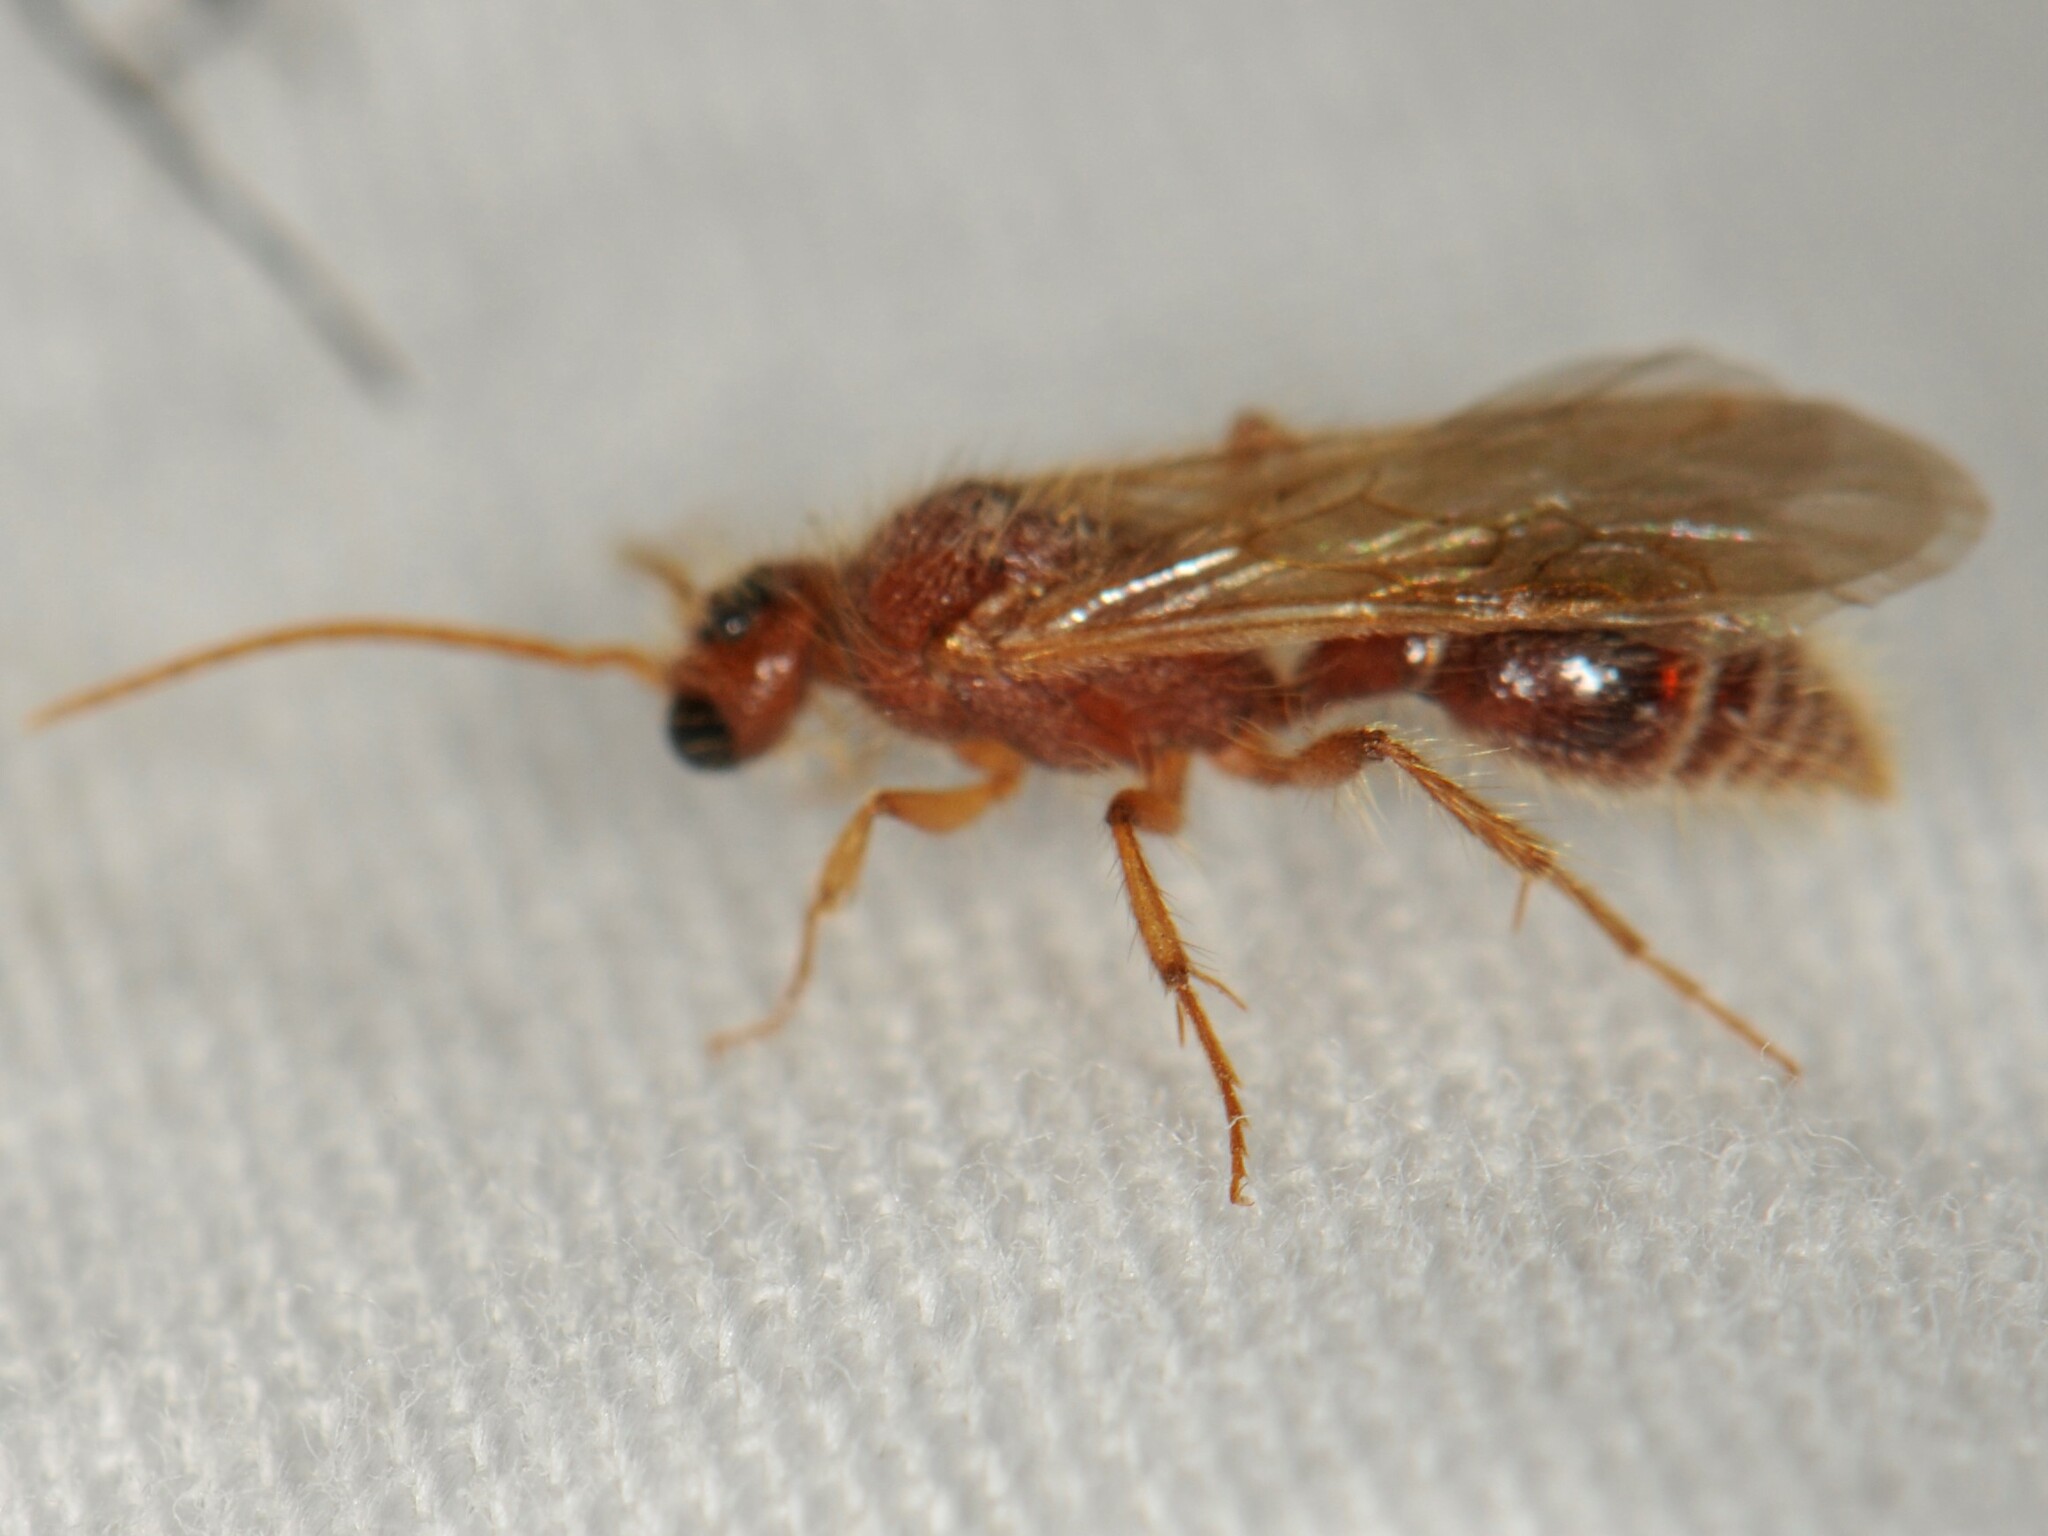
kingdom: Animalia
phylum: Arthropoda
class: Insecta
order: Hymenoptera
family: Mutillidae
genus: Sphaeropthalma
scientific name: Sphaeropthalma
